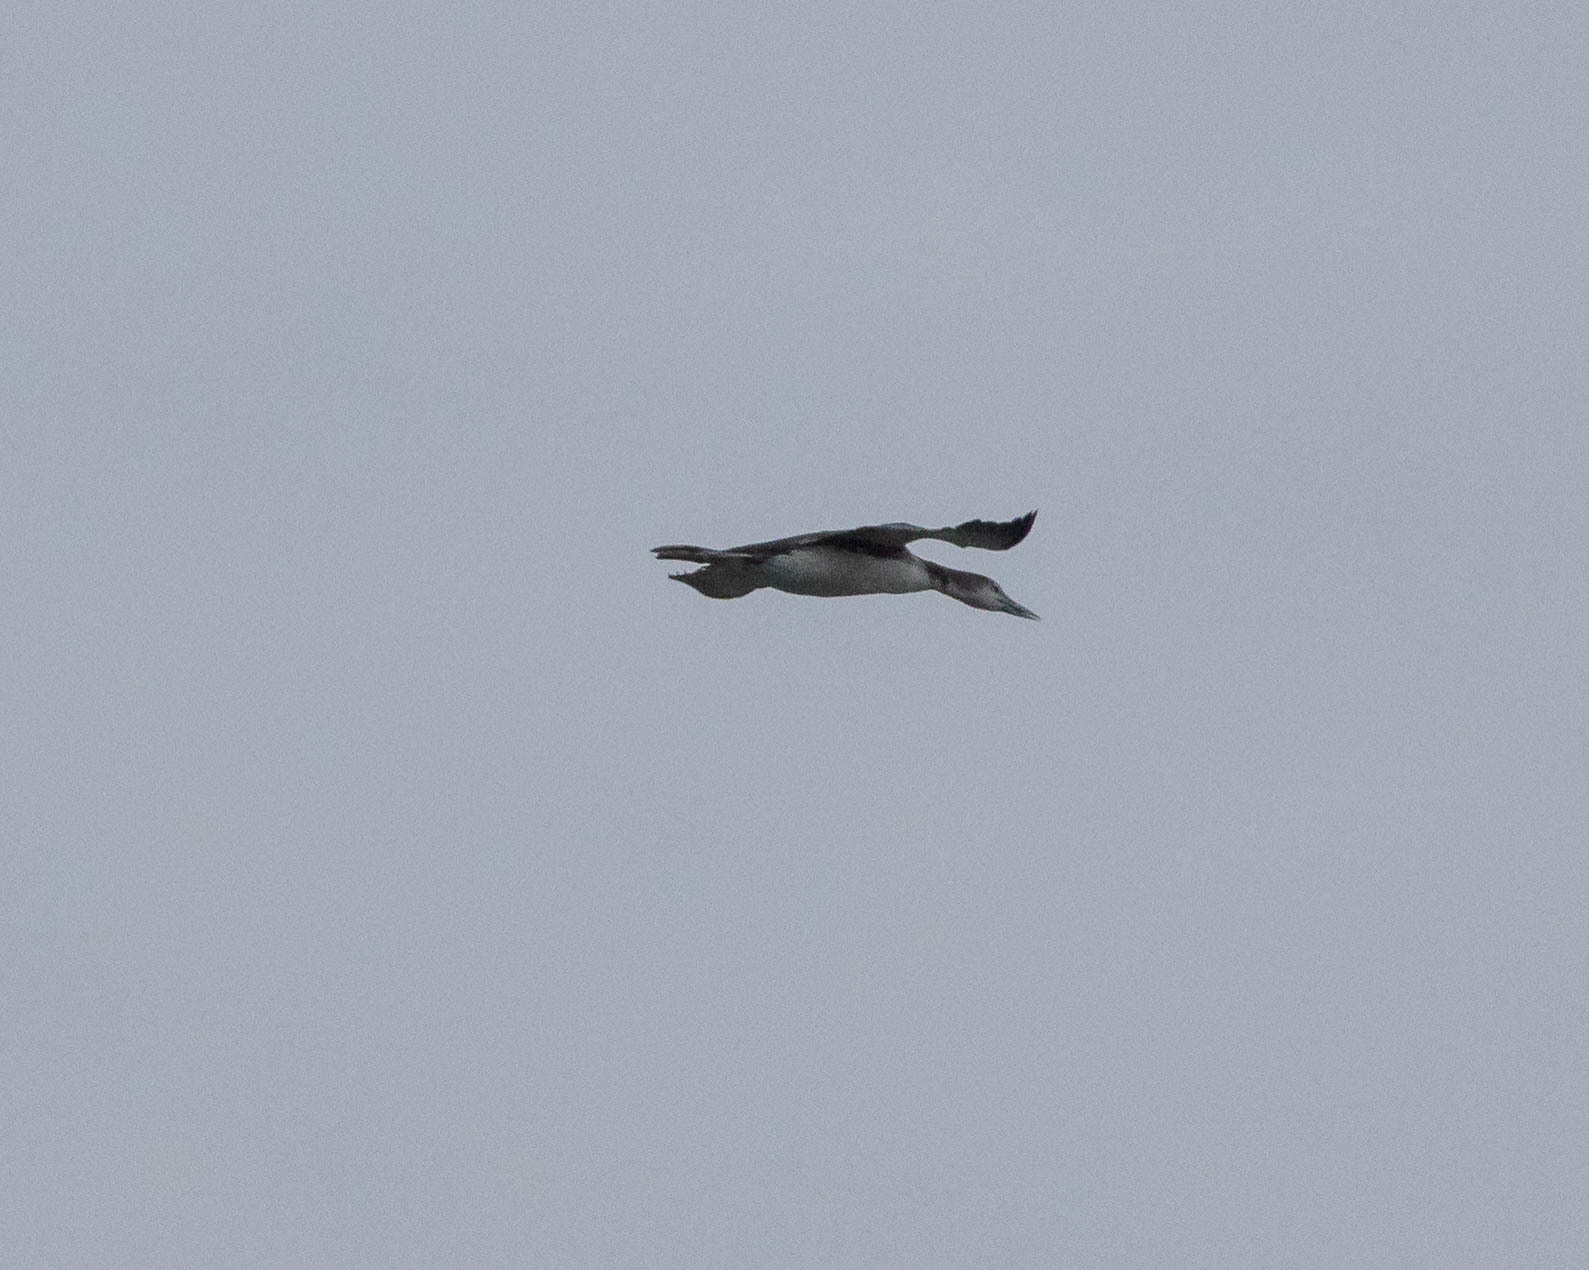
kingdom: Animalia
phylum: Chordata
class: Aves
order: Gaviiformes
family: Gaviidae
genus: Gavia
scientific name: Gavia stellata
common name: Red-throated loon
